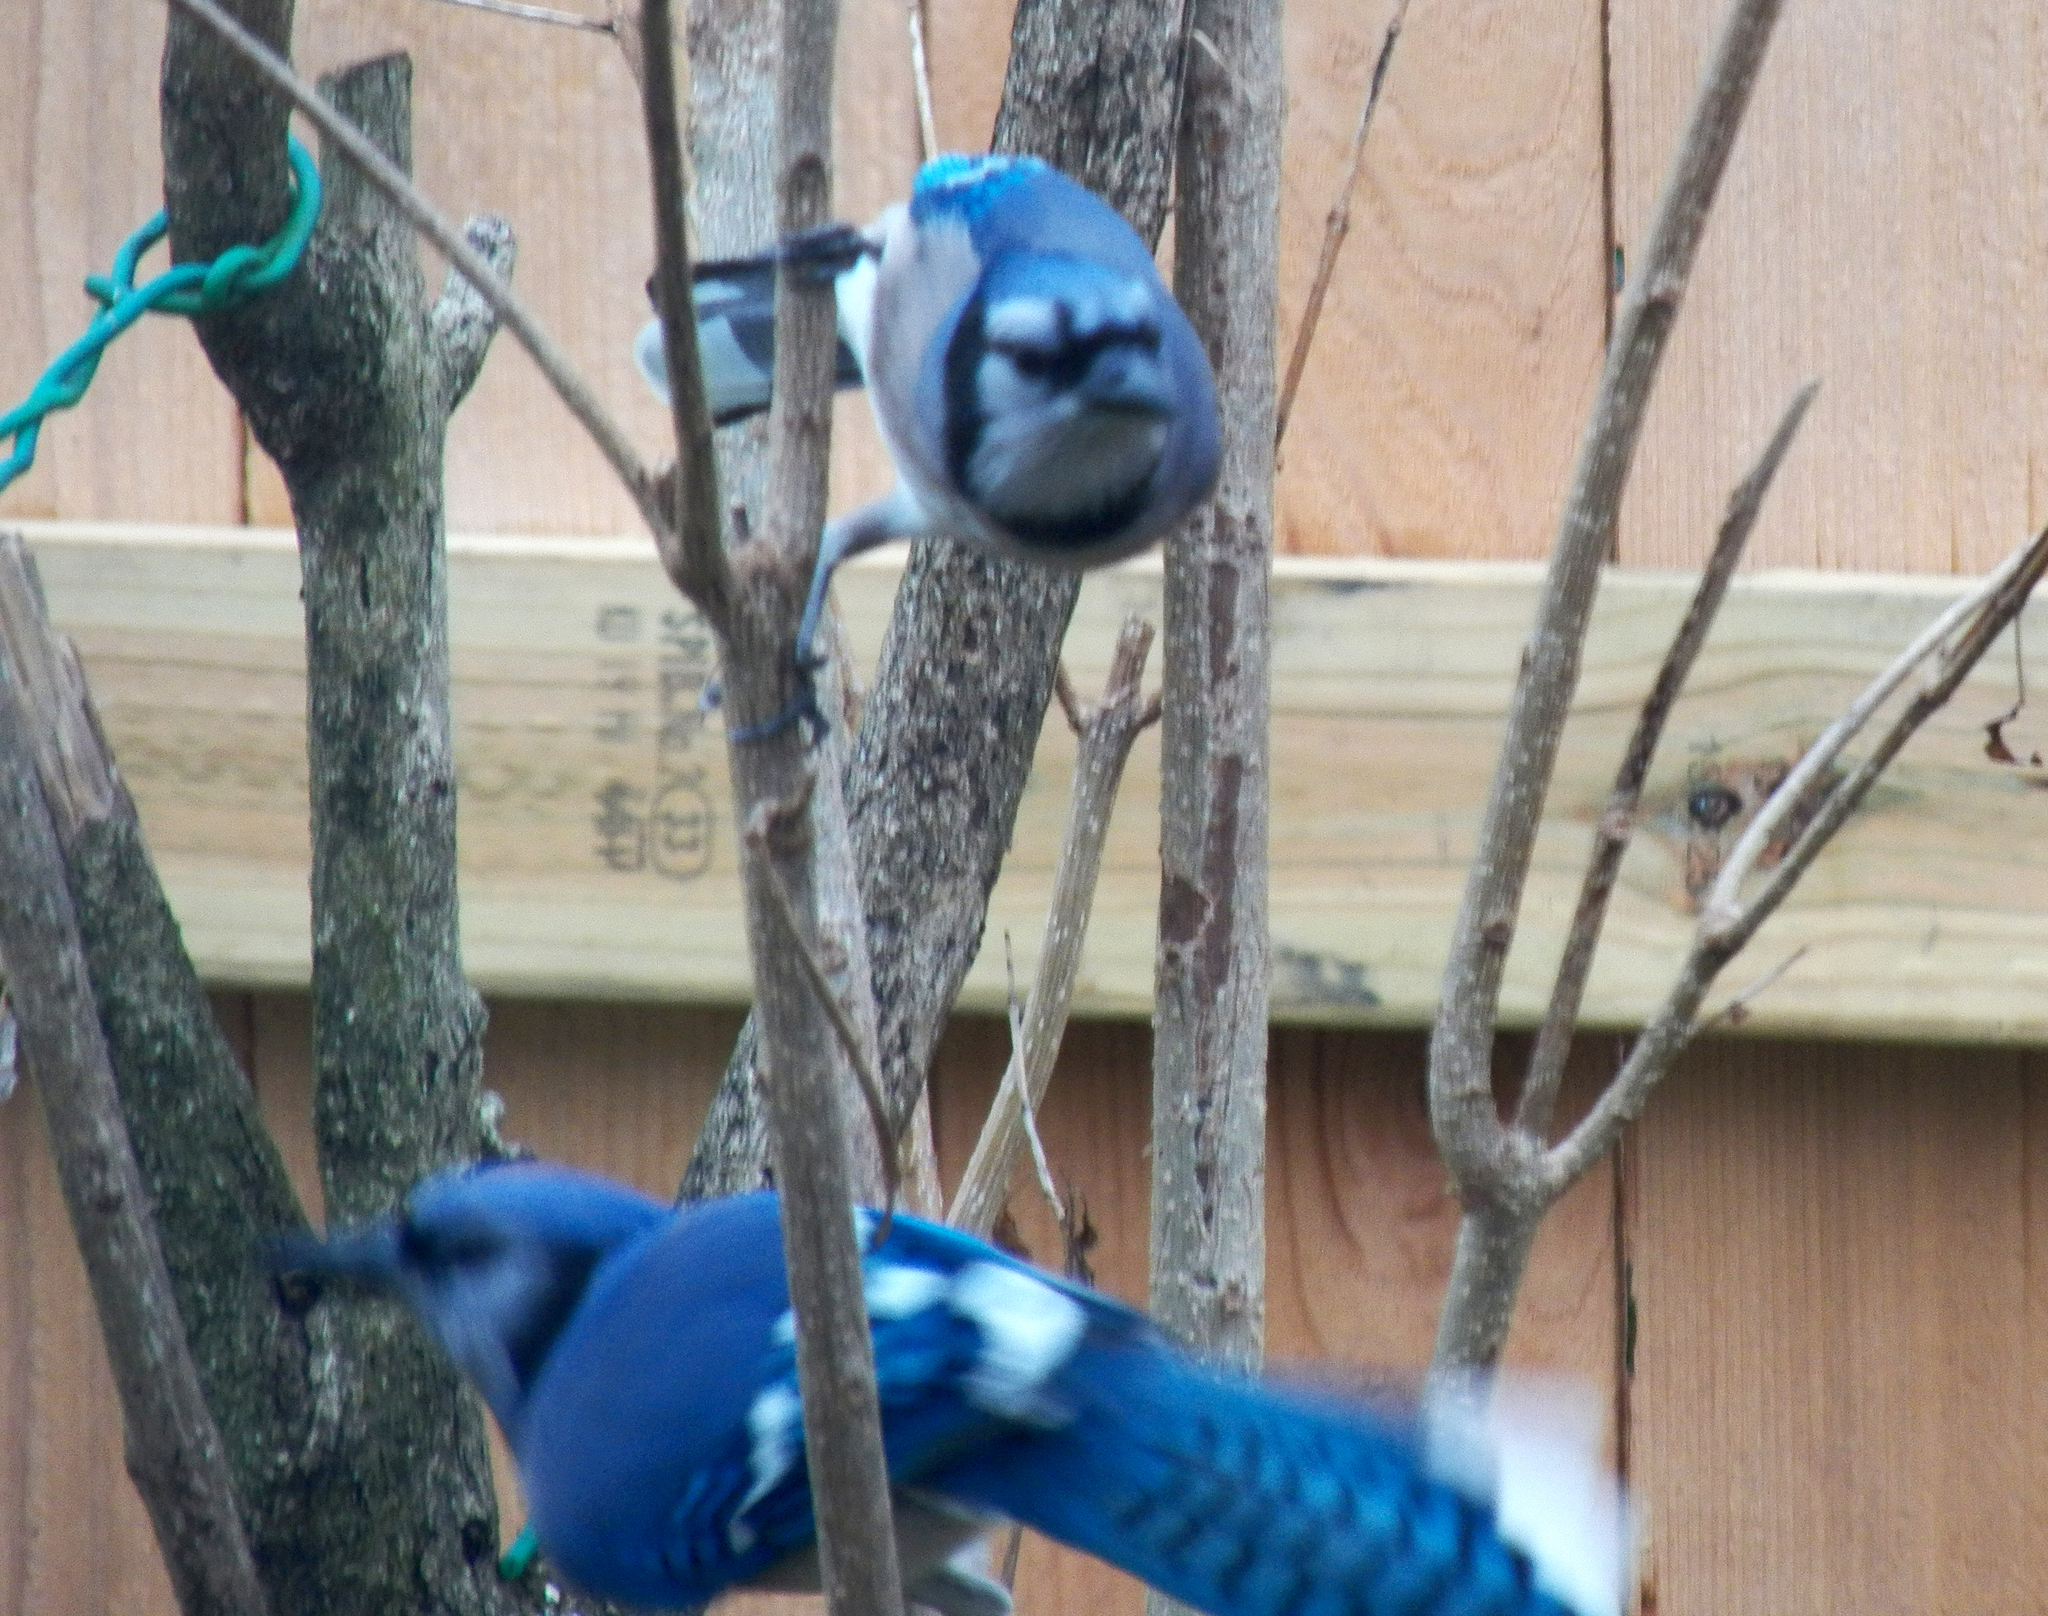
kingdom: Animalia
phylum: Chordata
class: Aves
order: Passeriformes
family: Corvidae
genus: Cyanocitta
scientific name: Cyanocitta cristata
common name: Blue jay
